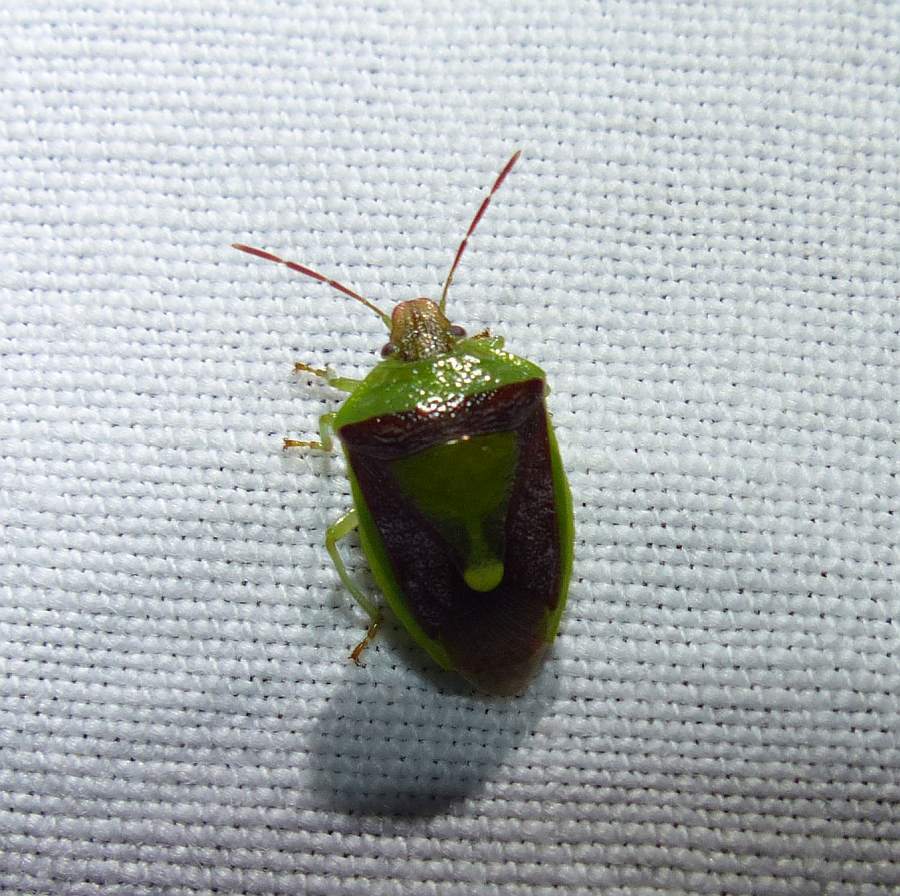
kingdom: Animalia
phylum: Arthropoda
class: Insecta
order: Hemiptera
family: Pentatomidae
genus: Banasa
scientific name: Banasa dimidiata
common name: Green burgundy stink bug
